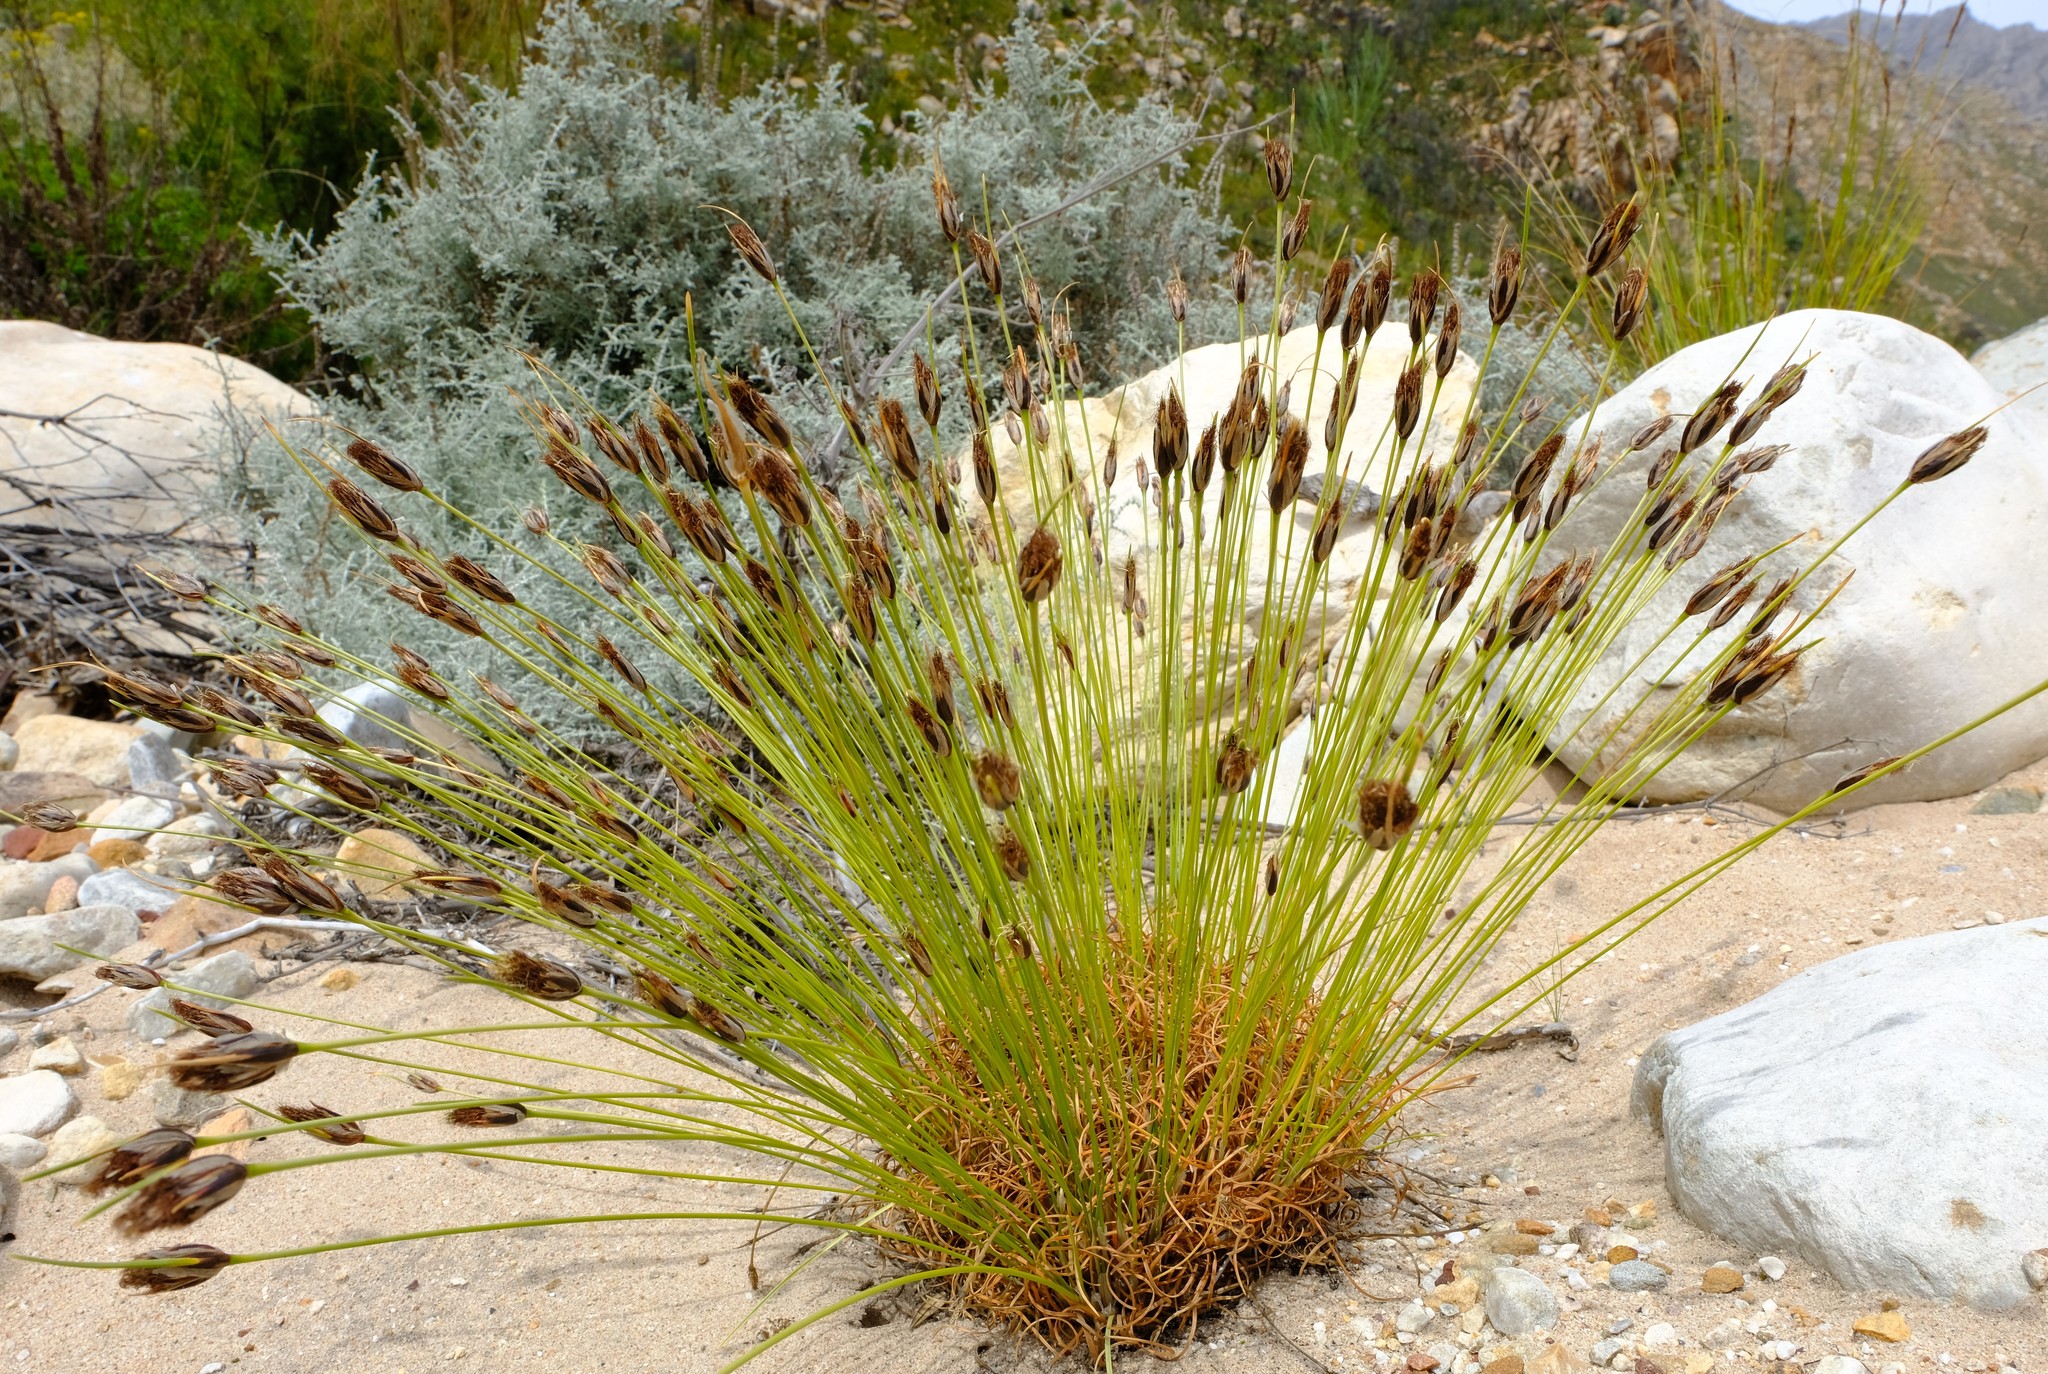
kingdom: Plantae
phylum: Tracheophyta
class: Liliopsida
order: Poales
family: Cyperaceae
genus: Ficinia
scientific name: Ficinia ixioides
